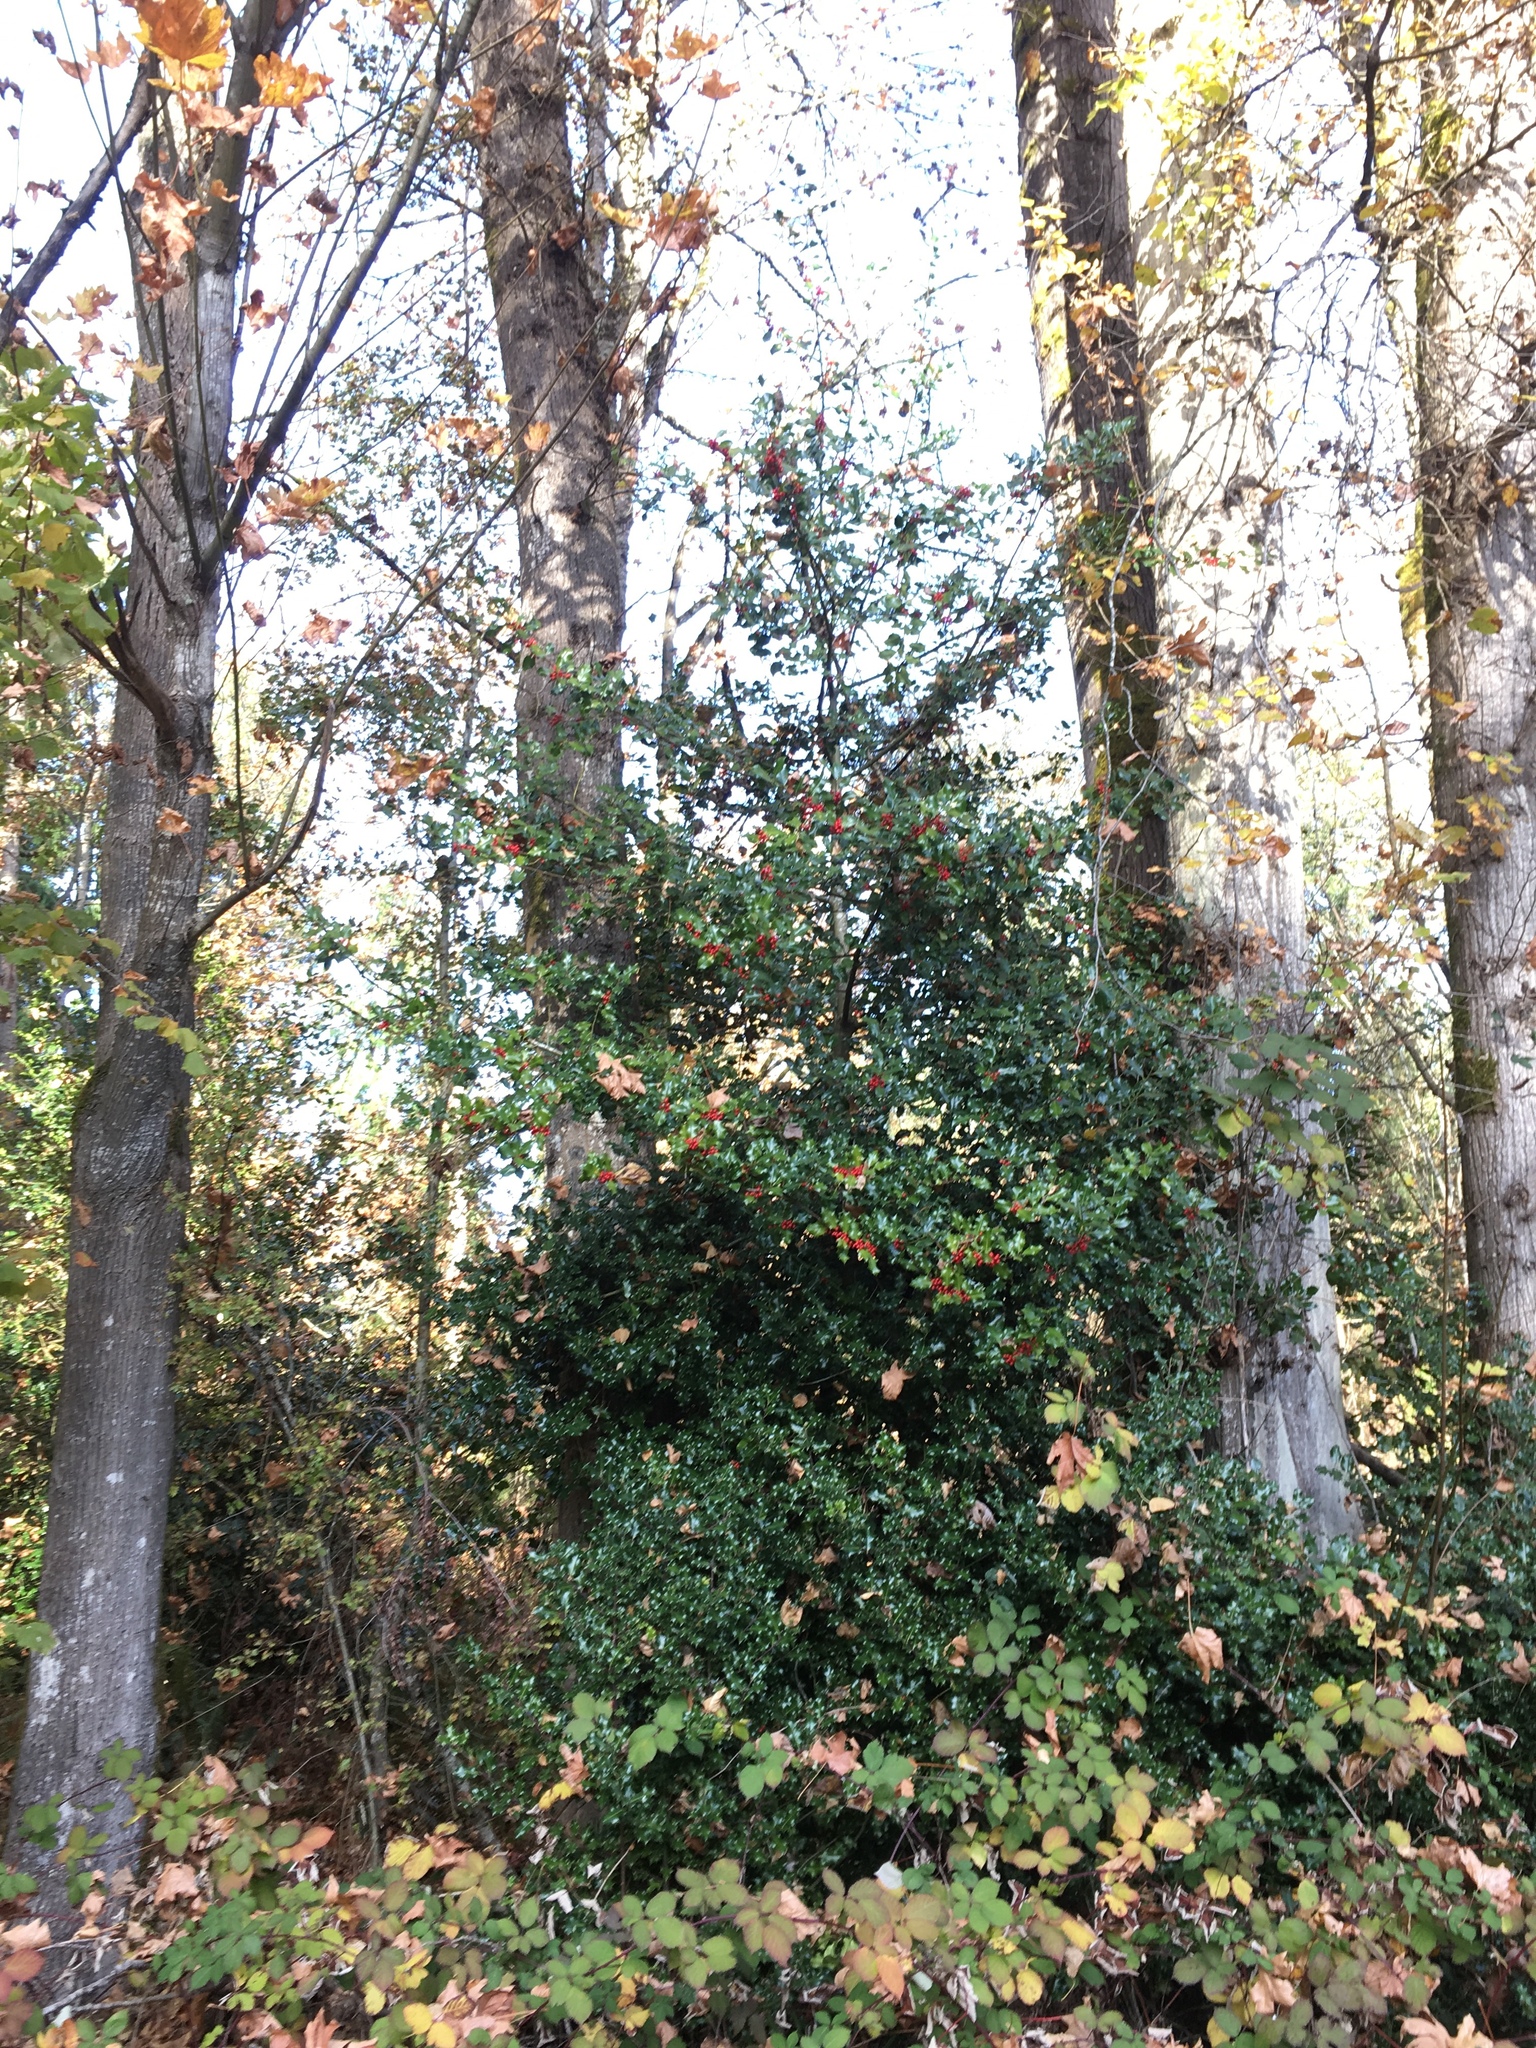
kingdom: Plantae
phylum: Tracheophyta
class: Magnoliopsida
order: Aquifoliales
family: Aquifoliaceae
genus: Ilex
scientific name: Ilex aquifolium
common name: English holly
